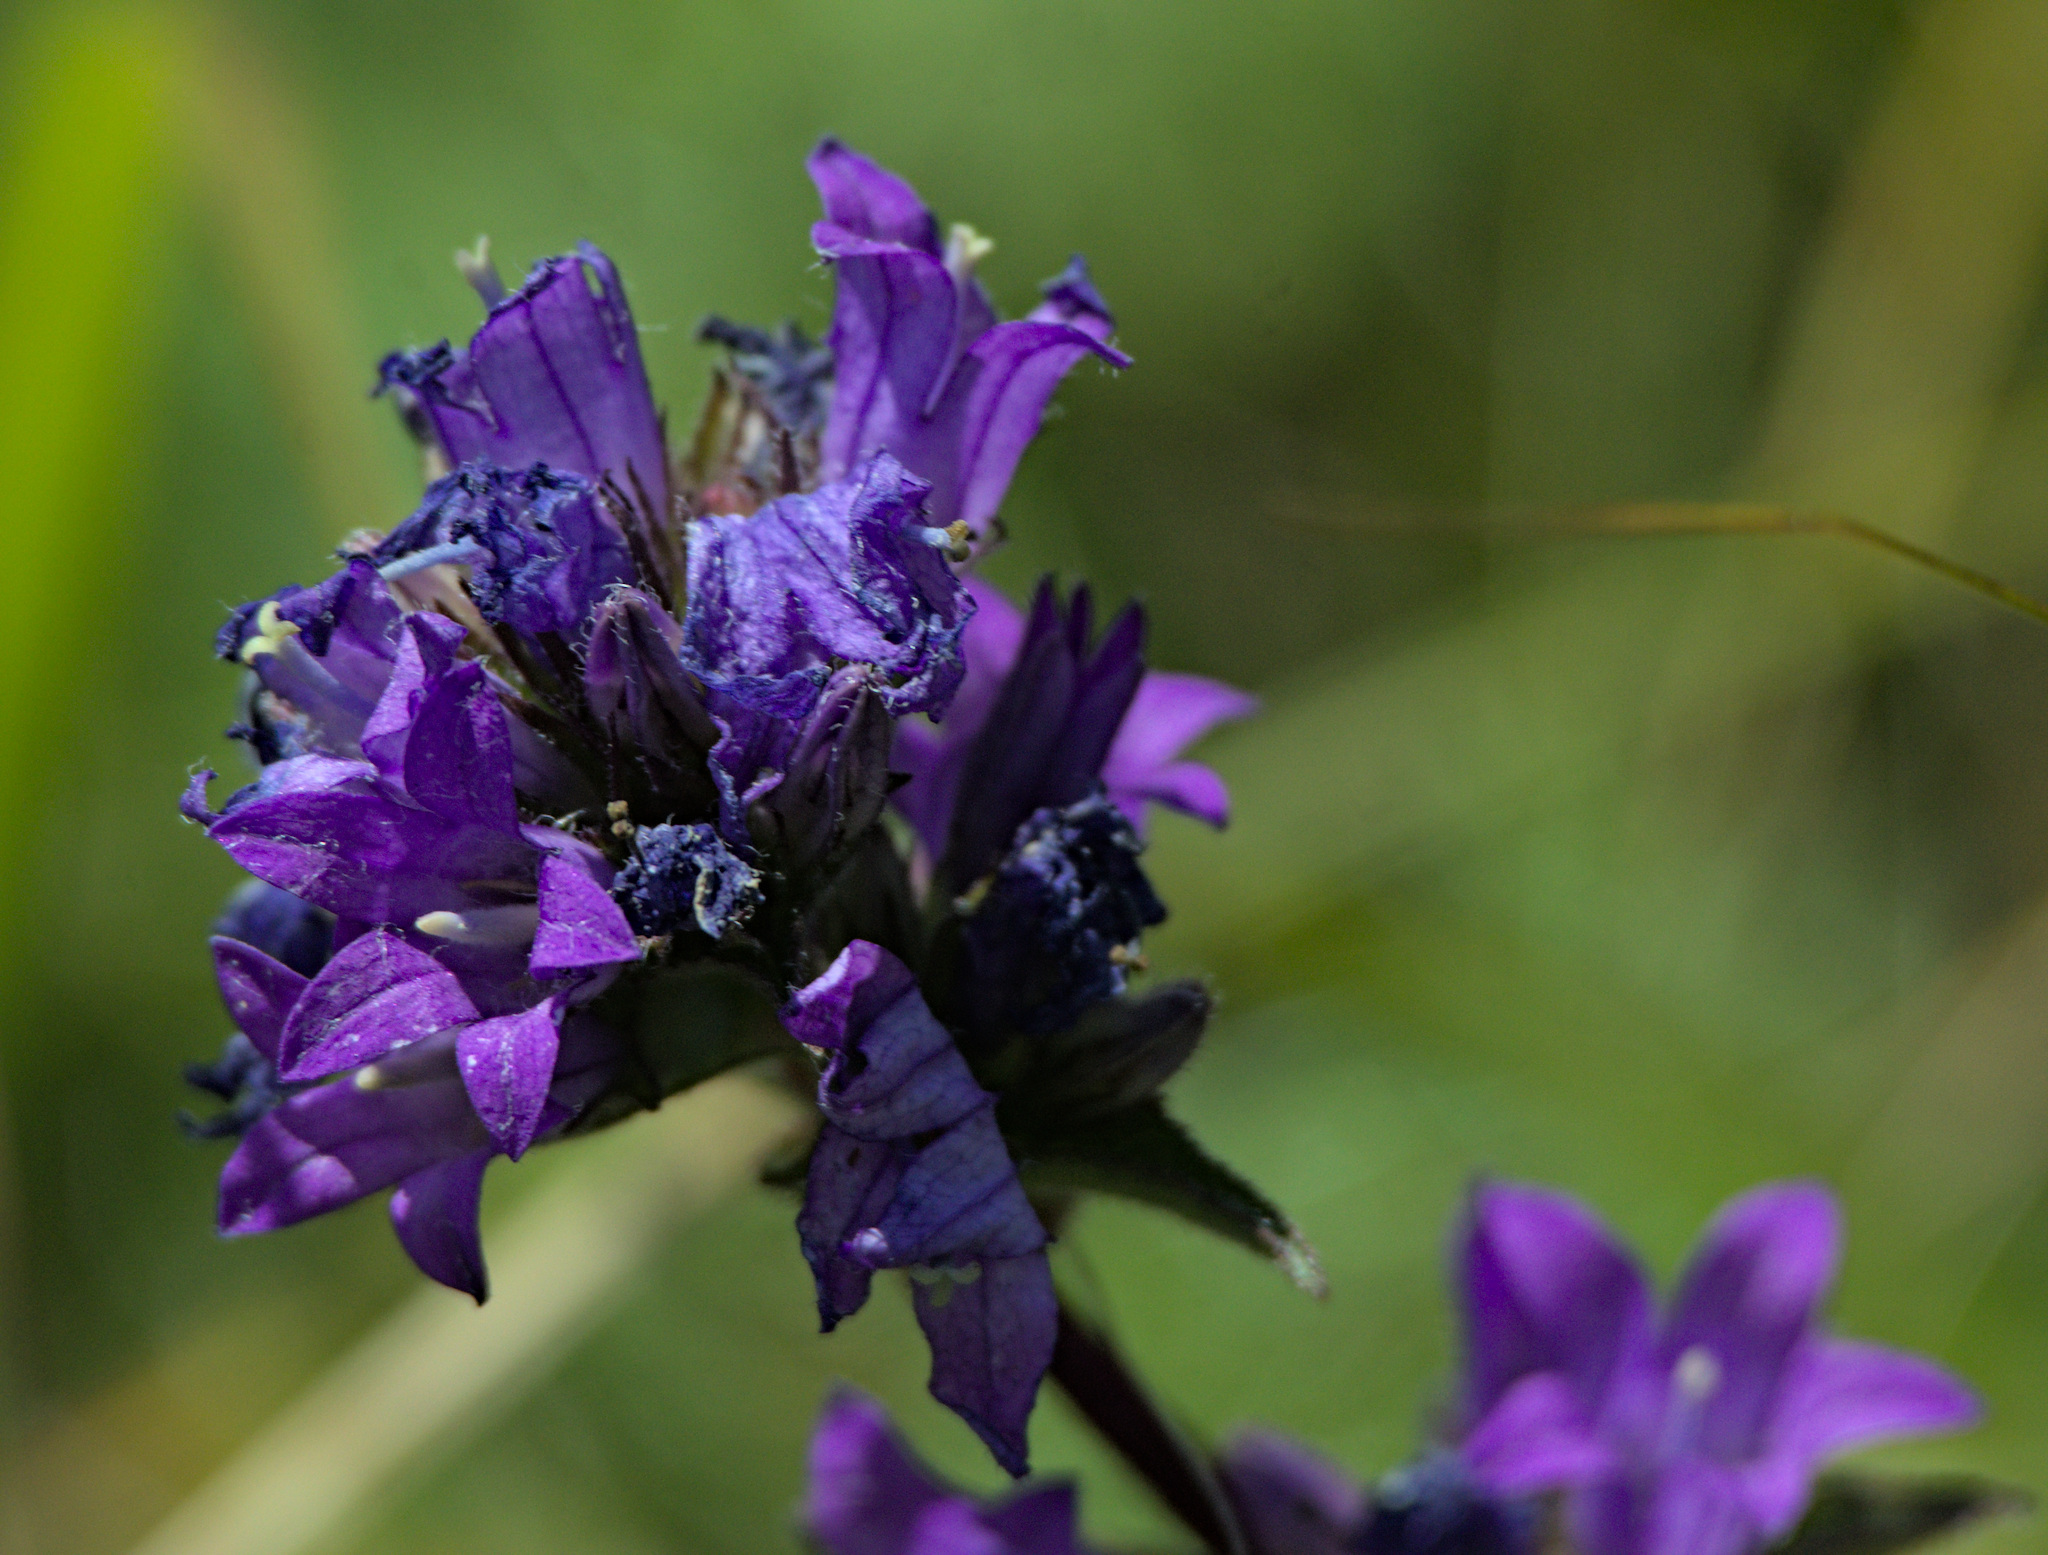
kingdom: Plantae
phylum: Tracheophyta
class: Magnoliopsida
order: Asterales
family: Campanulaceae
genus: Campanula
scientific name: Campanula glomerata
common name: Clustered bellflower
